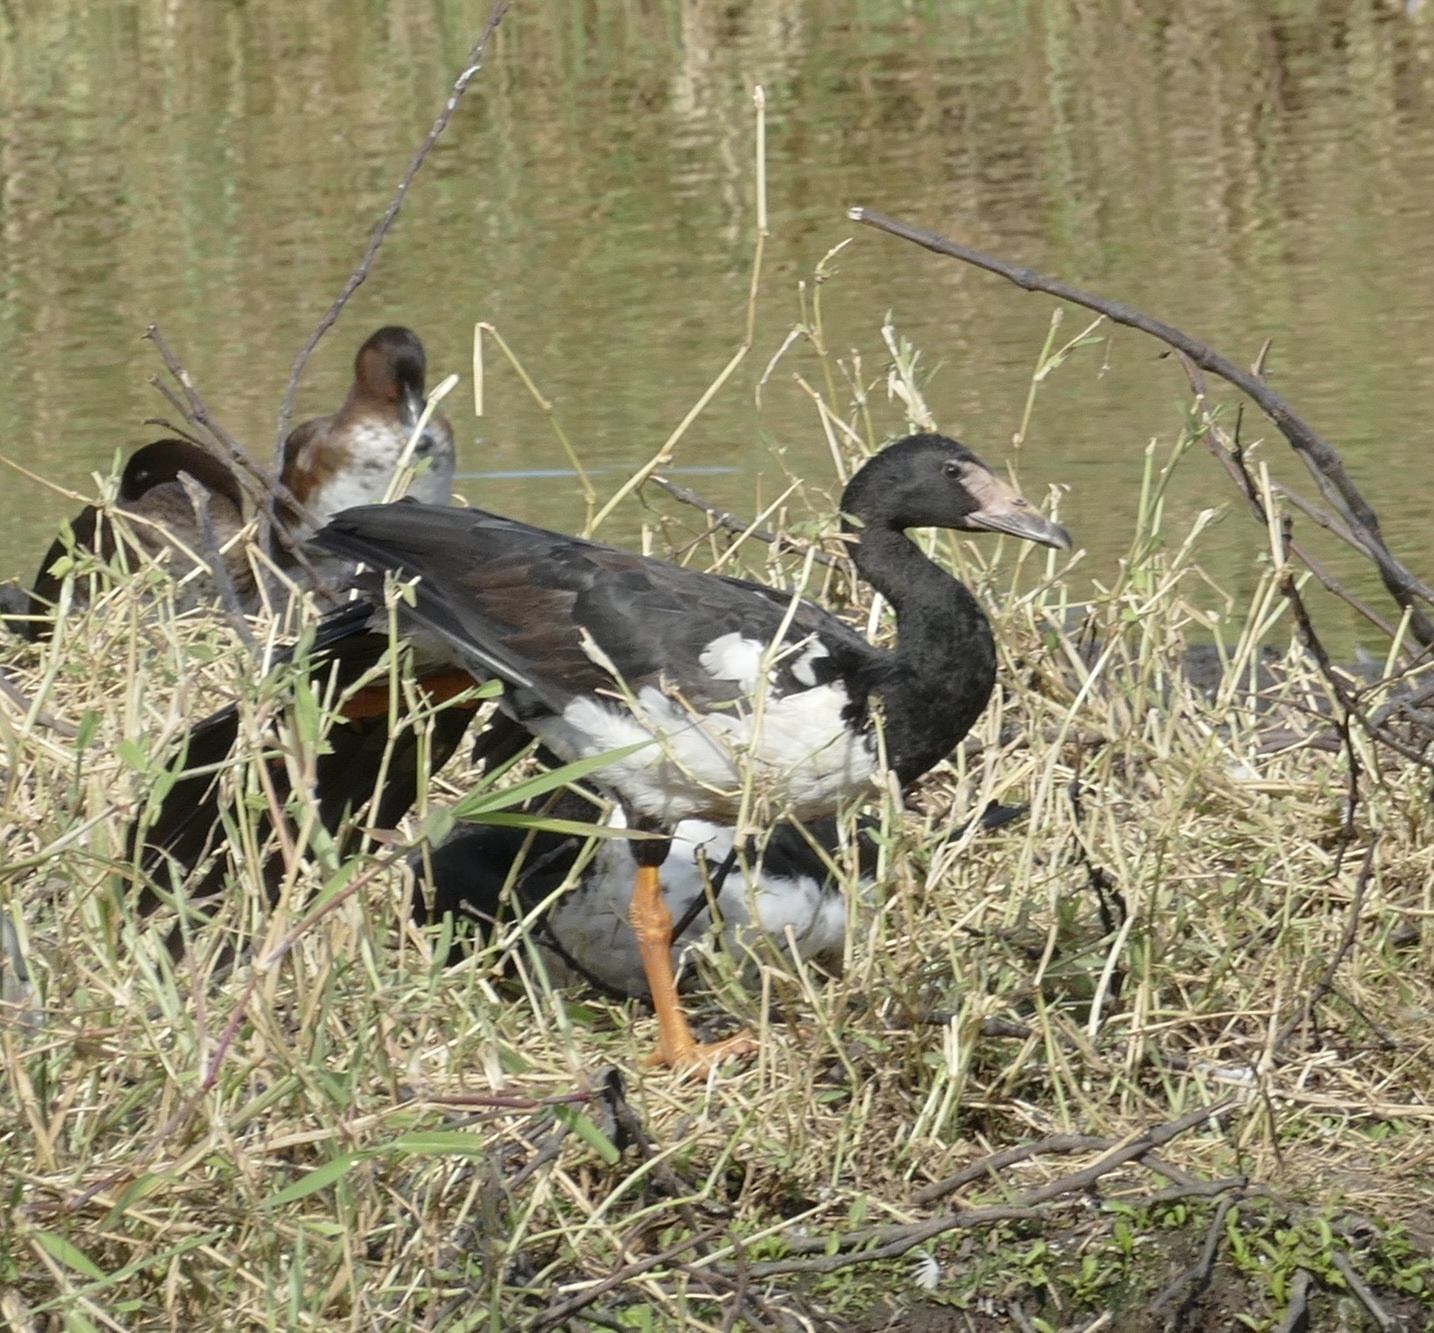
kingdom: Animalia
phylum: Chordata
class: Aves
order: Anseriformes
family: Anseranatidae
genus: Anseranas
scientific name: Anseranas semipalmata
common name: Magpie goose
